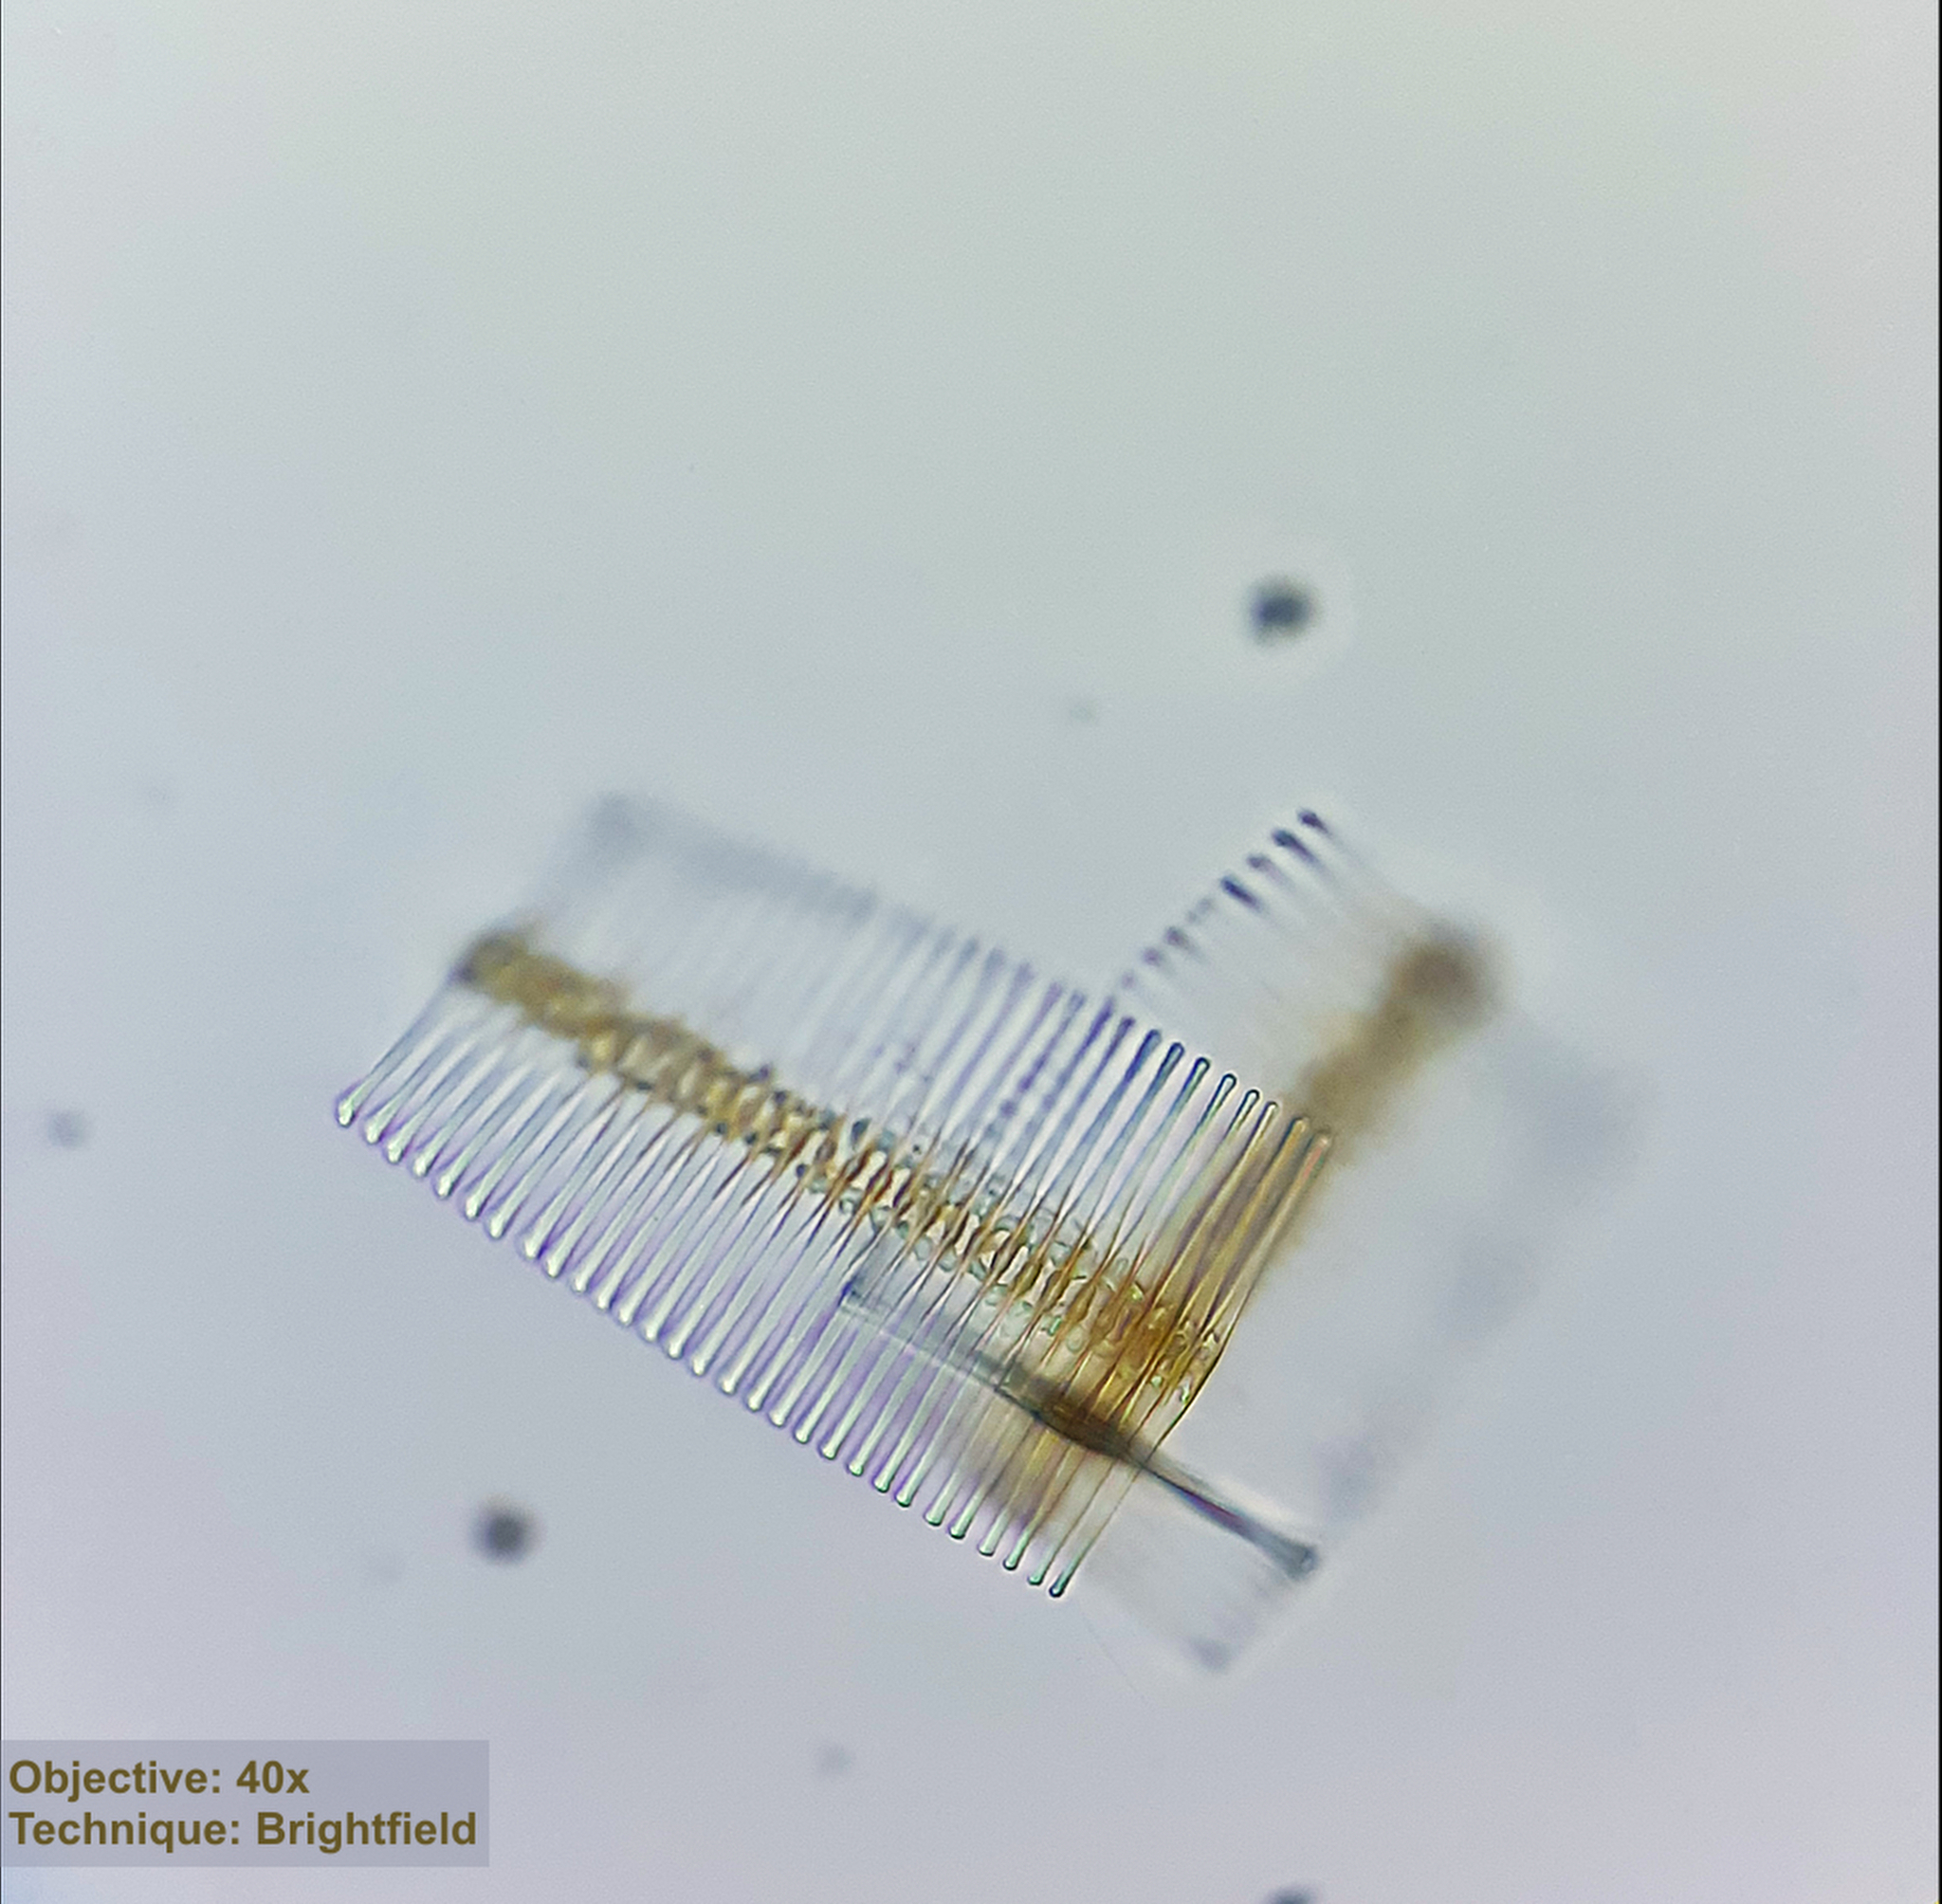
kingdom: Chromista
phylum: Ochrophyta
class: Bacillariophyceae
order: Fragilariales
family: Fragilariaceae
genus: Fragilaria
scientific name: Fragilaria crotonensis
